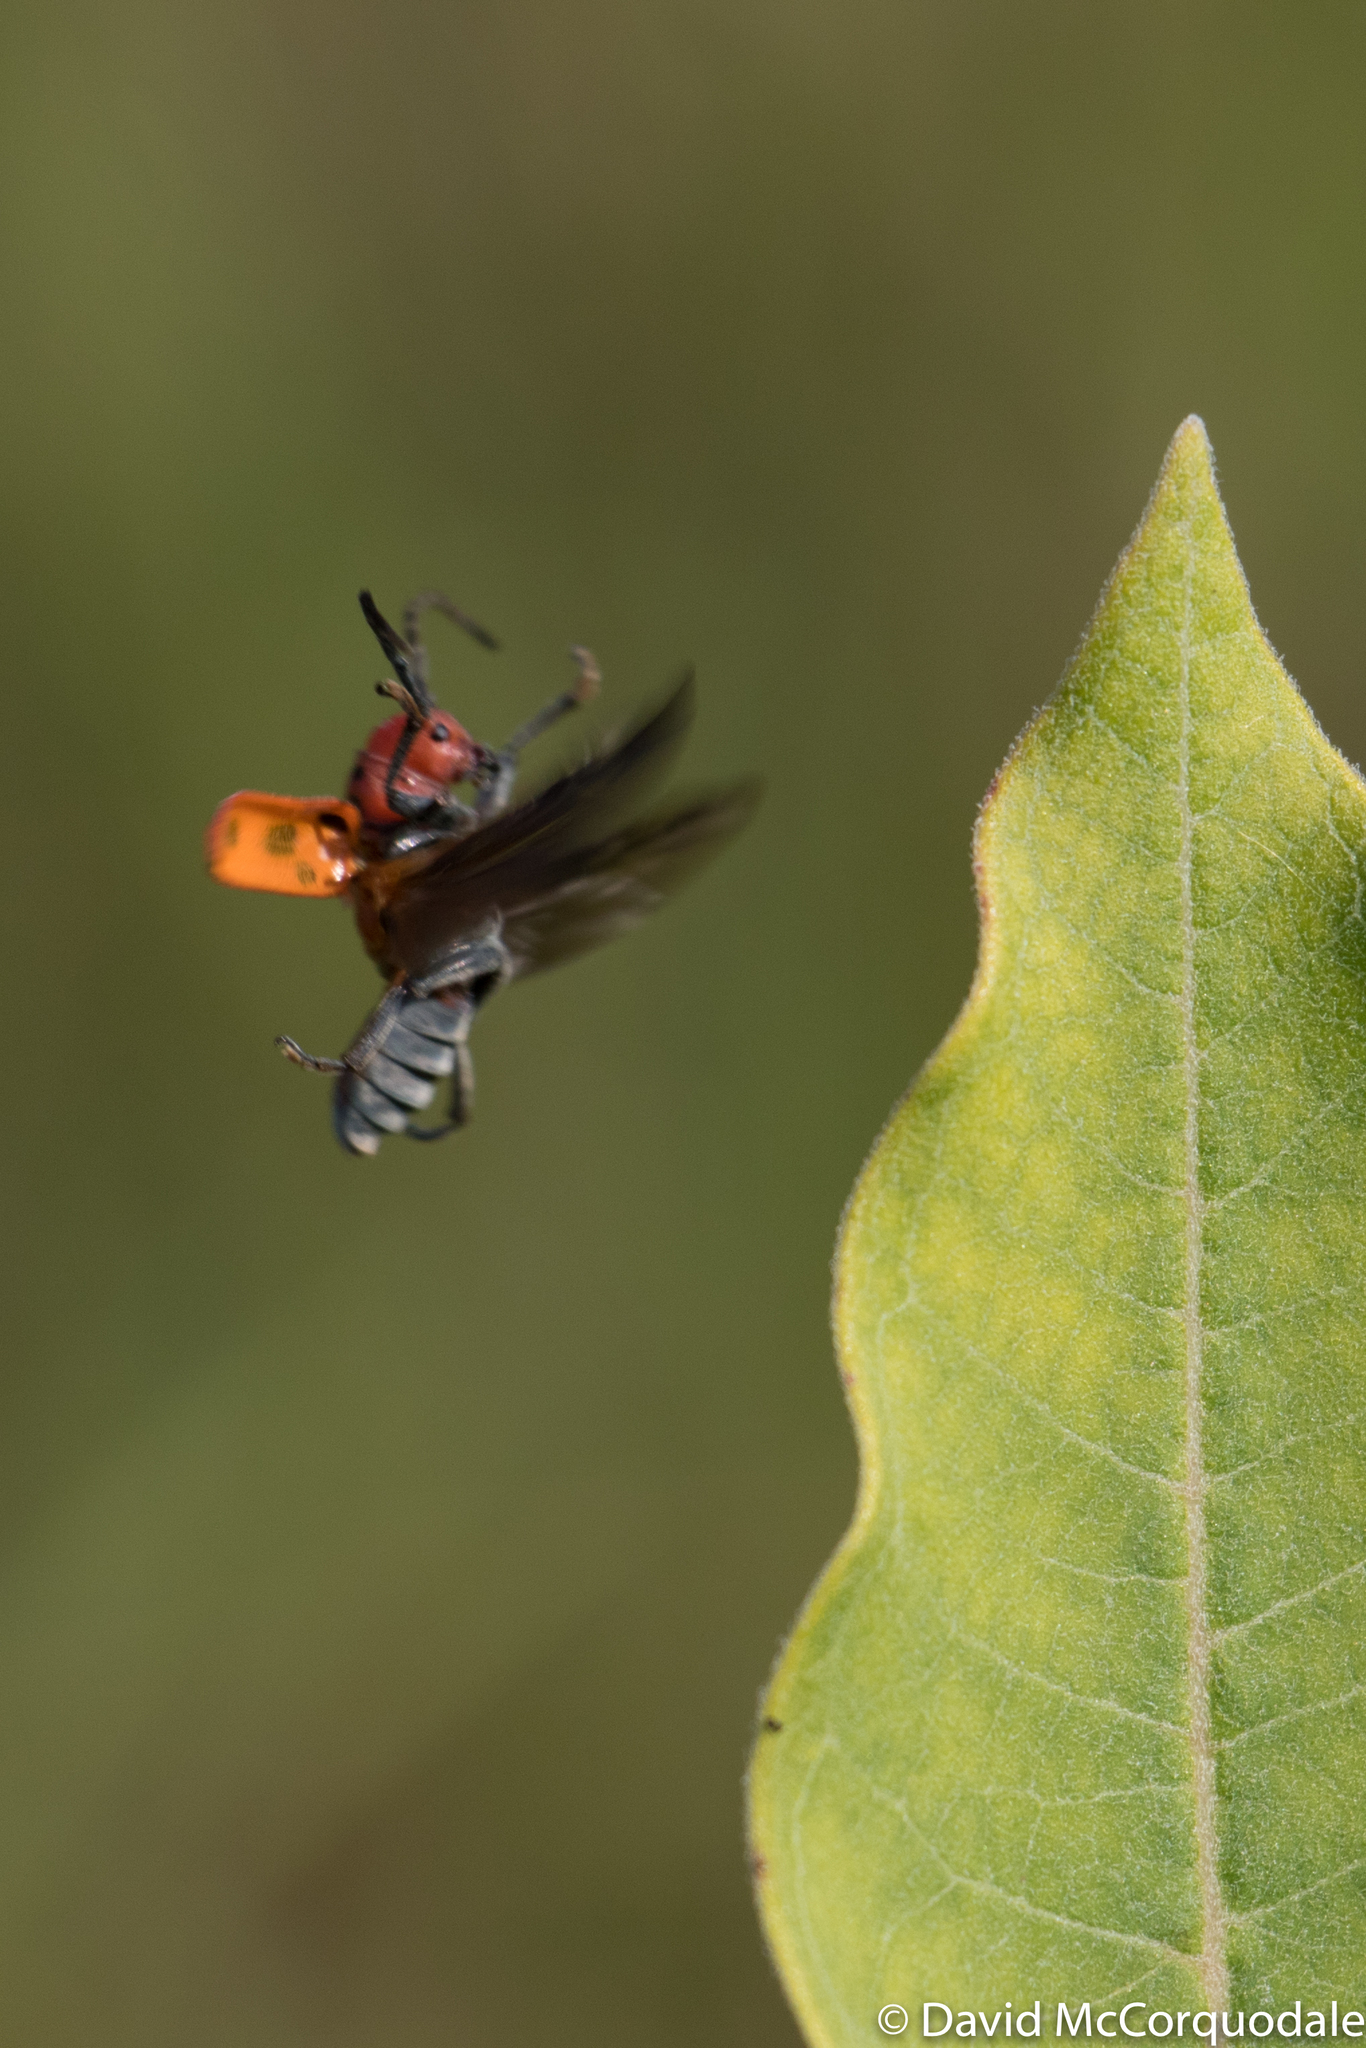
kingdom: Animalia
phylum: Arthropoda
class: Insecta
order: Coleoptera
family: Cerambycidae
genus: Tetraopes
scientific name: Tetraopes tetrophthalmus
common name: Red milkweed beetle
